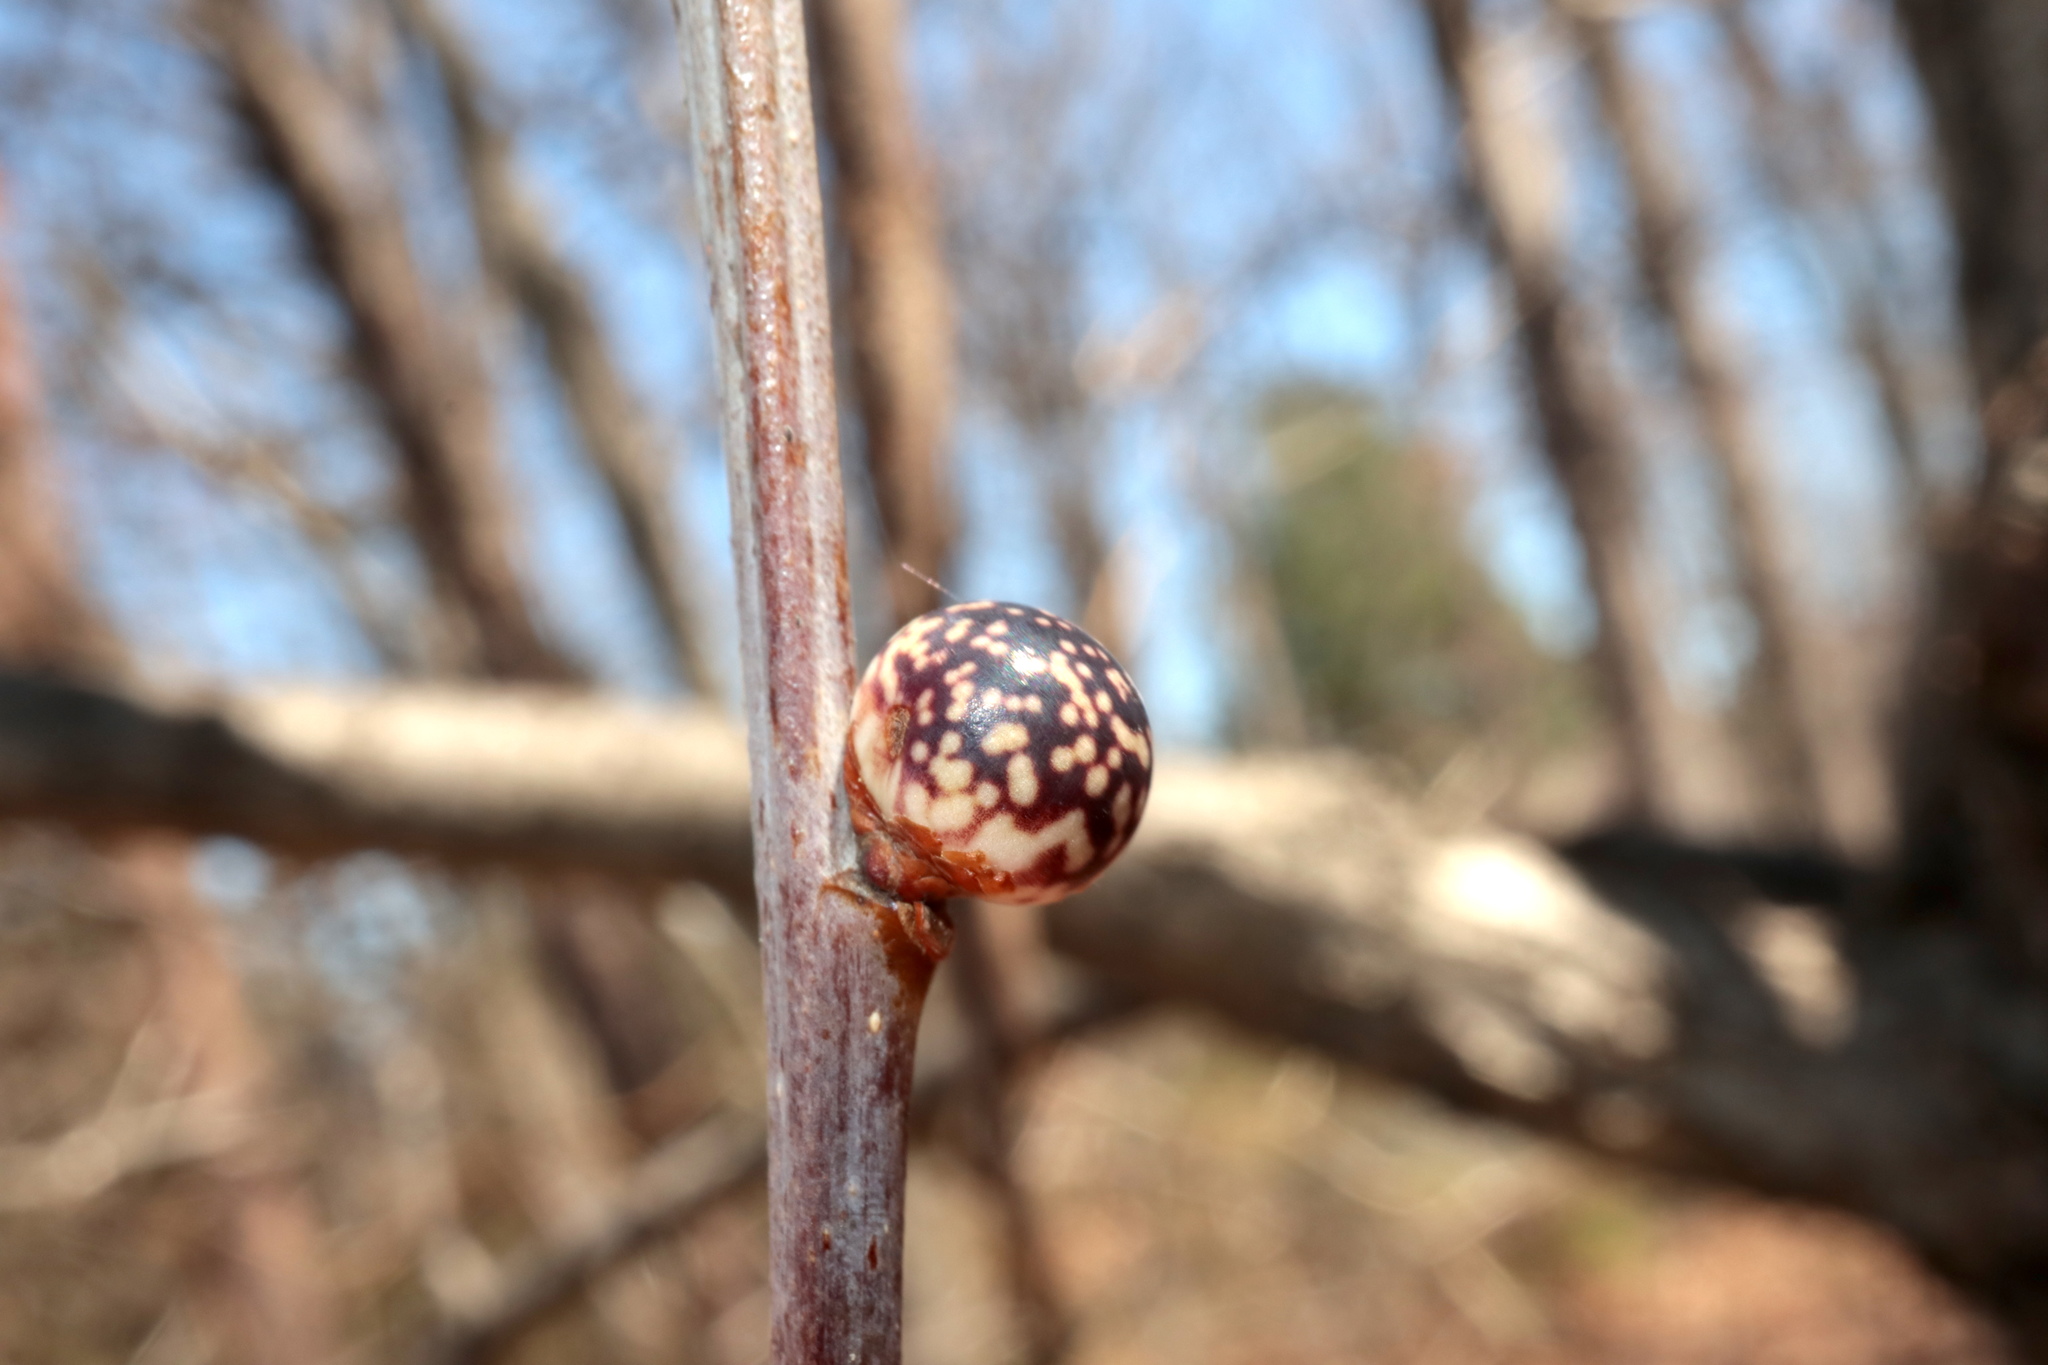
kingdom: Animalia
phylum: Arthropoda
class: Insecta
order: Hymenoptera
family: Cynipidae
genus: Andricus
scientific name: Andricus
